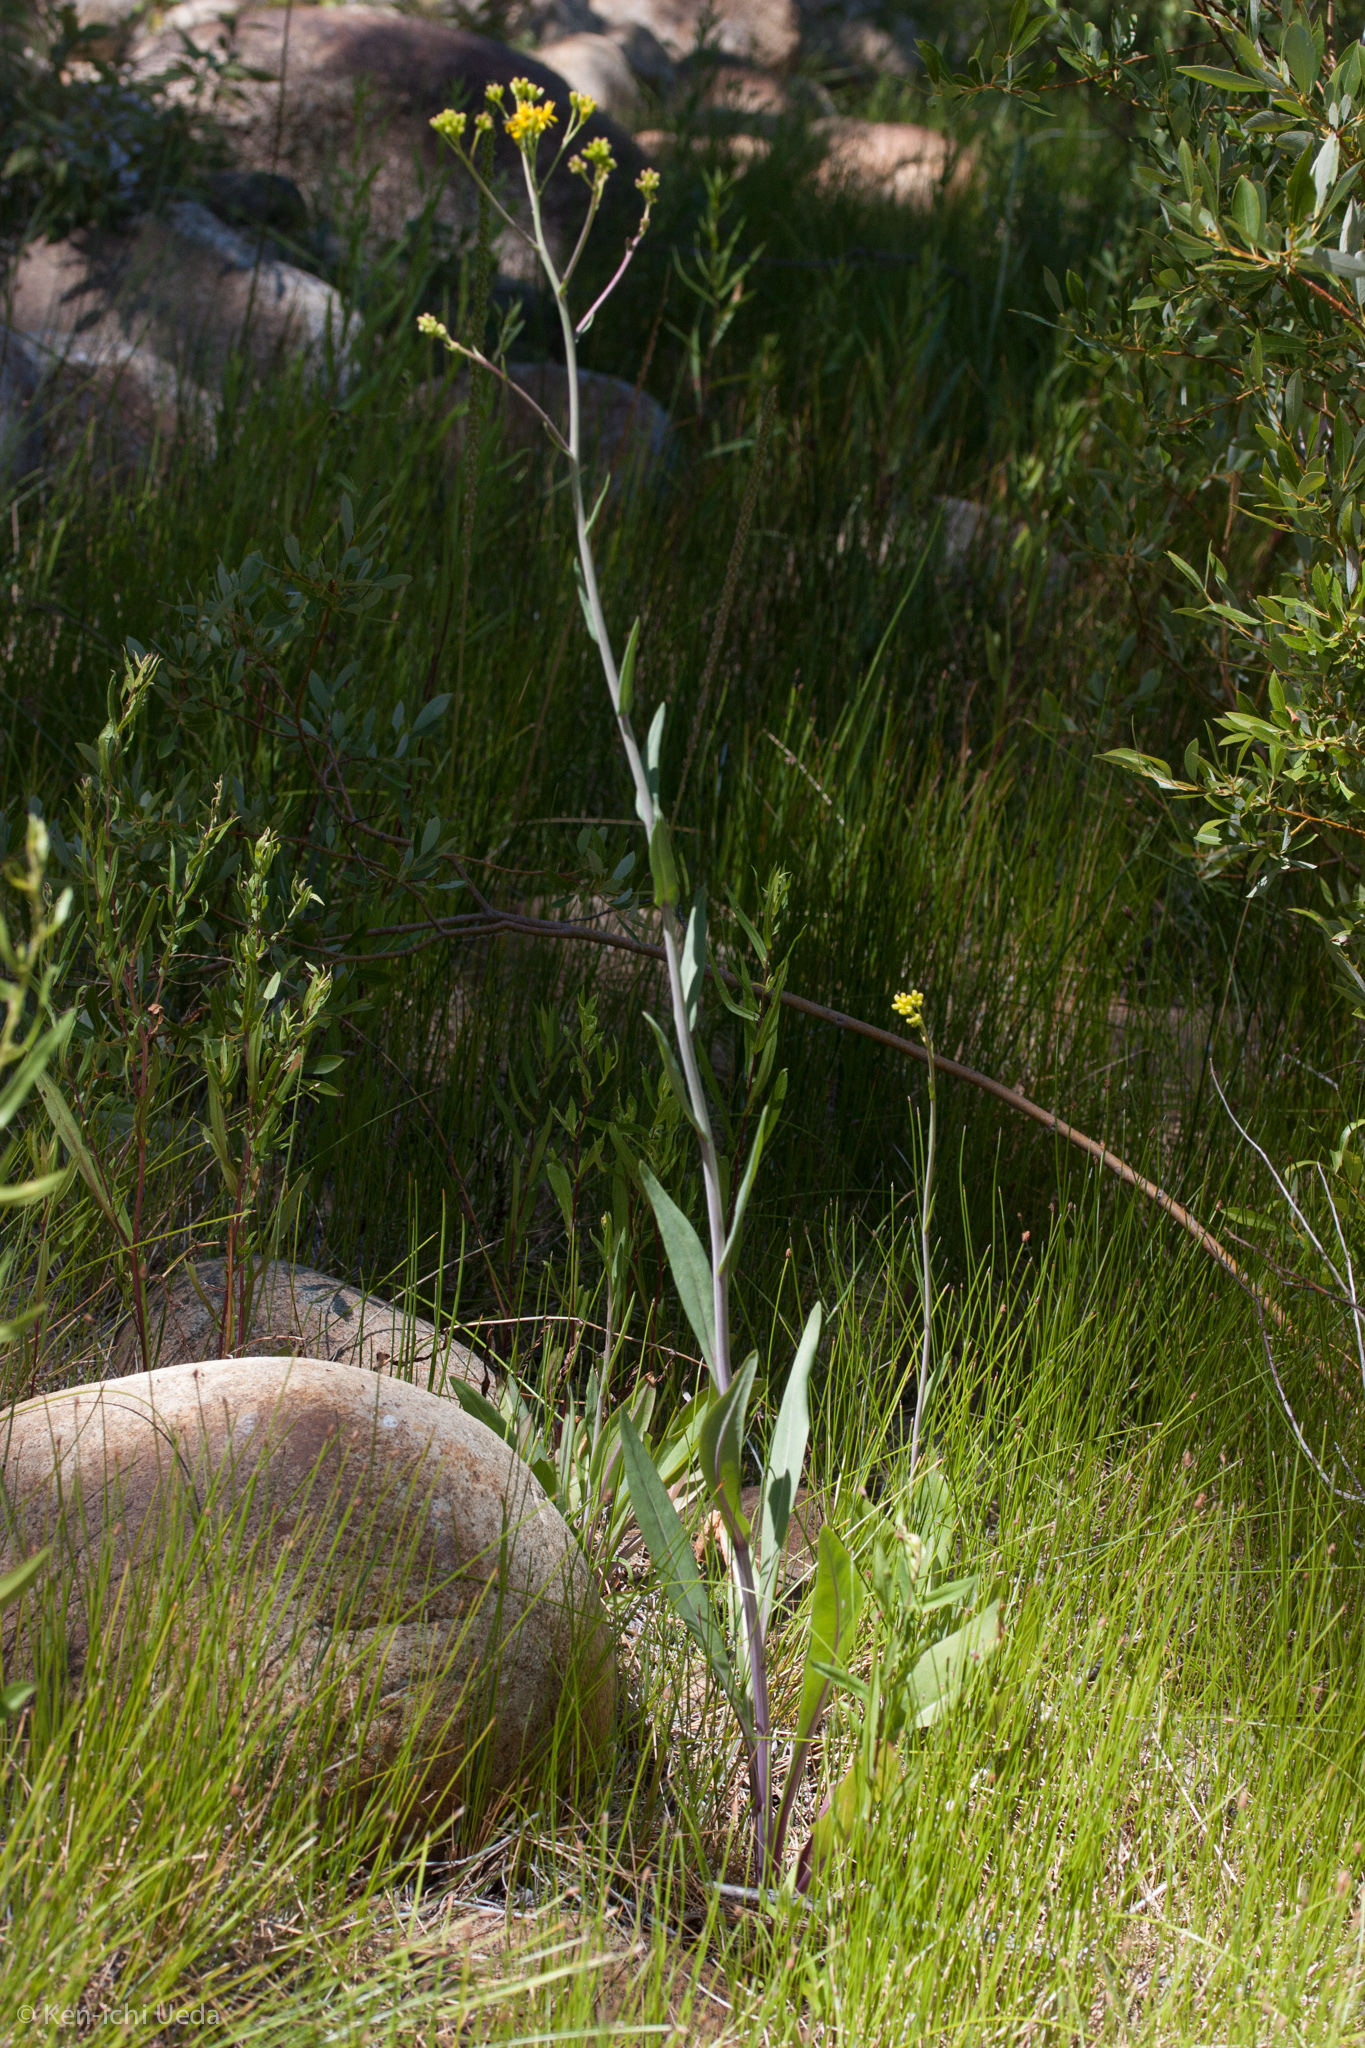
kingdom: Plantae
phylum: Tracheophyta
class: Magnoliopsida
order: Asterales
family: Asteraceae
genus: Senecio
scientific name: Senecio hydrophilus
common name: Water ragwort
